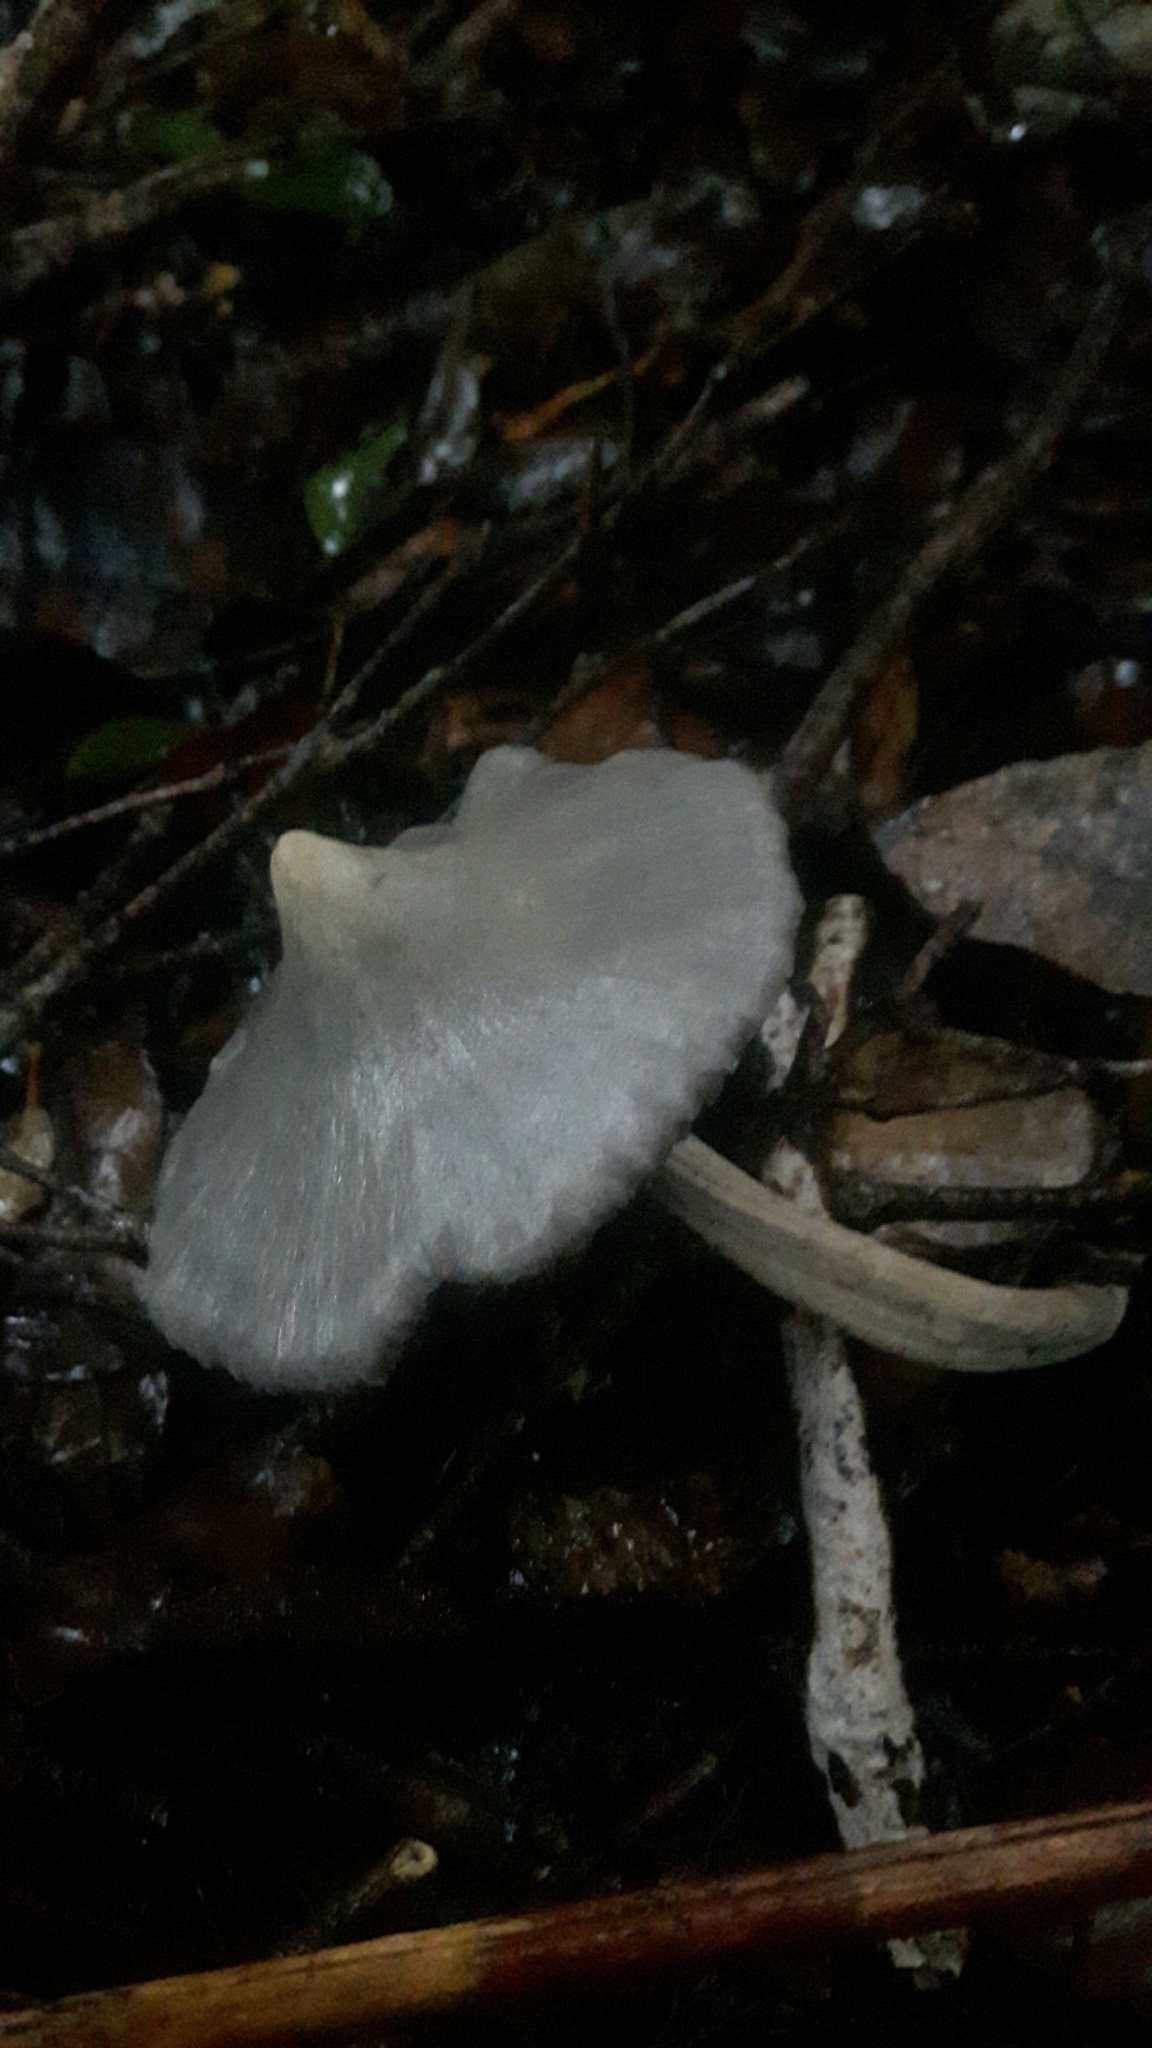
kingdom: Fungi
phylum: Basidiomycota
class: Agaricomycetes
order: Agaricales
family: Entolomataceae
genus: Entoloma
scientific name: Entoloma canoconicum
